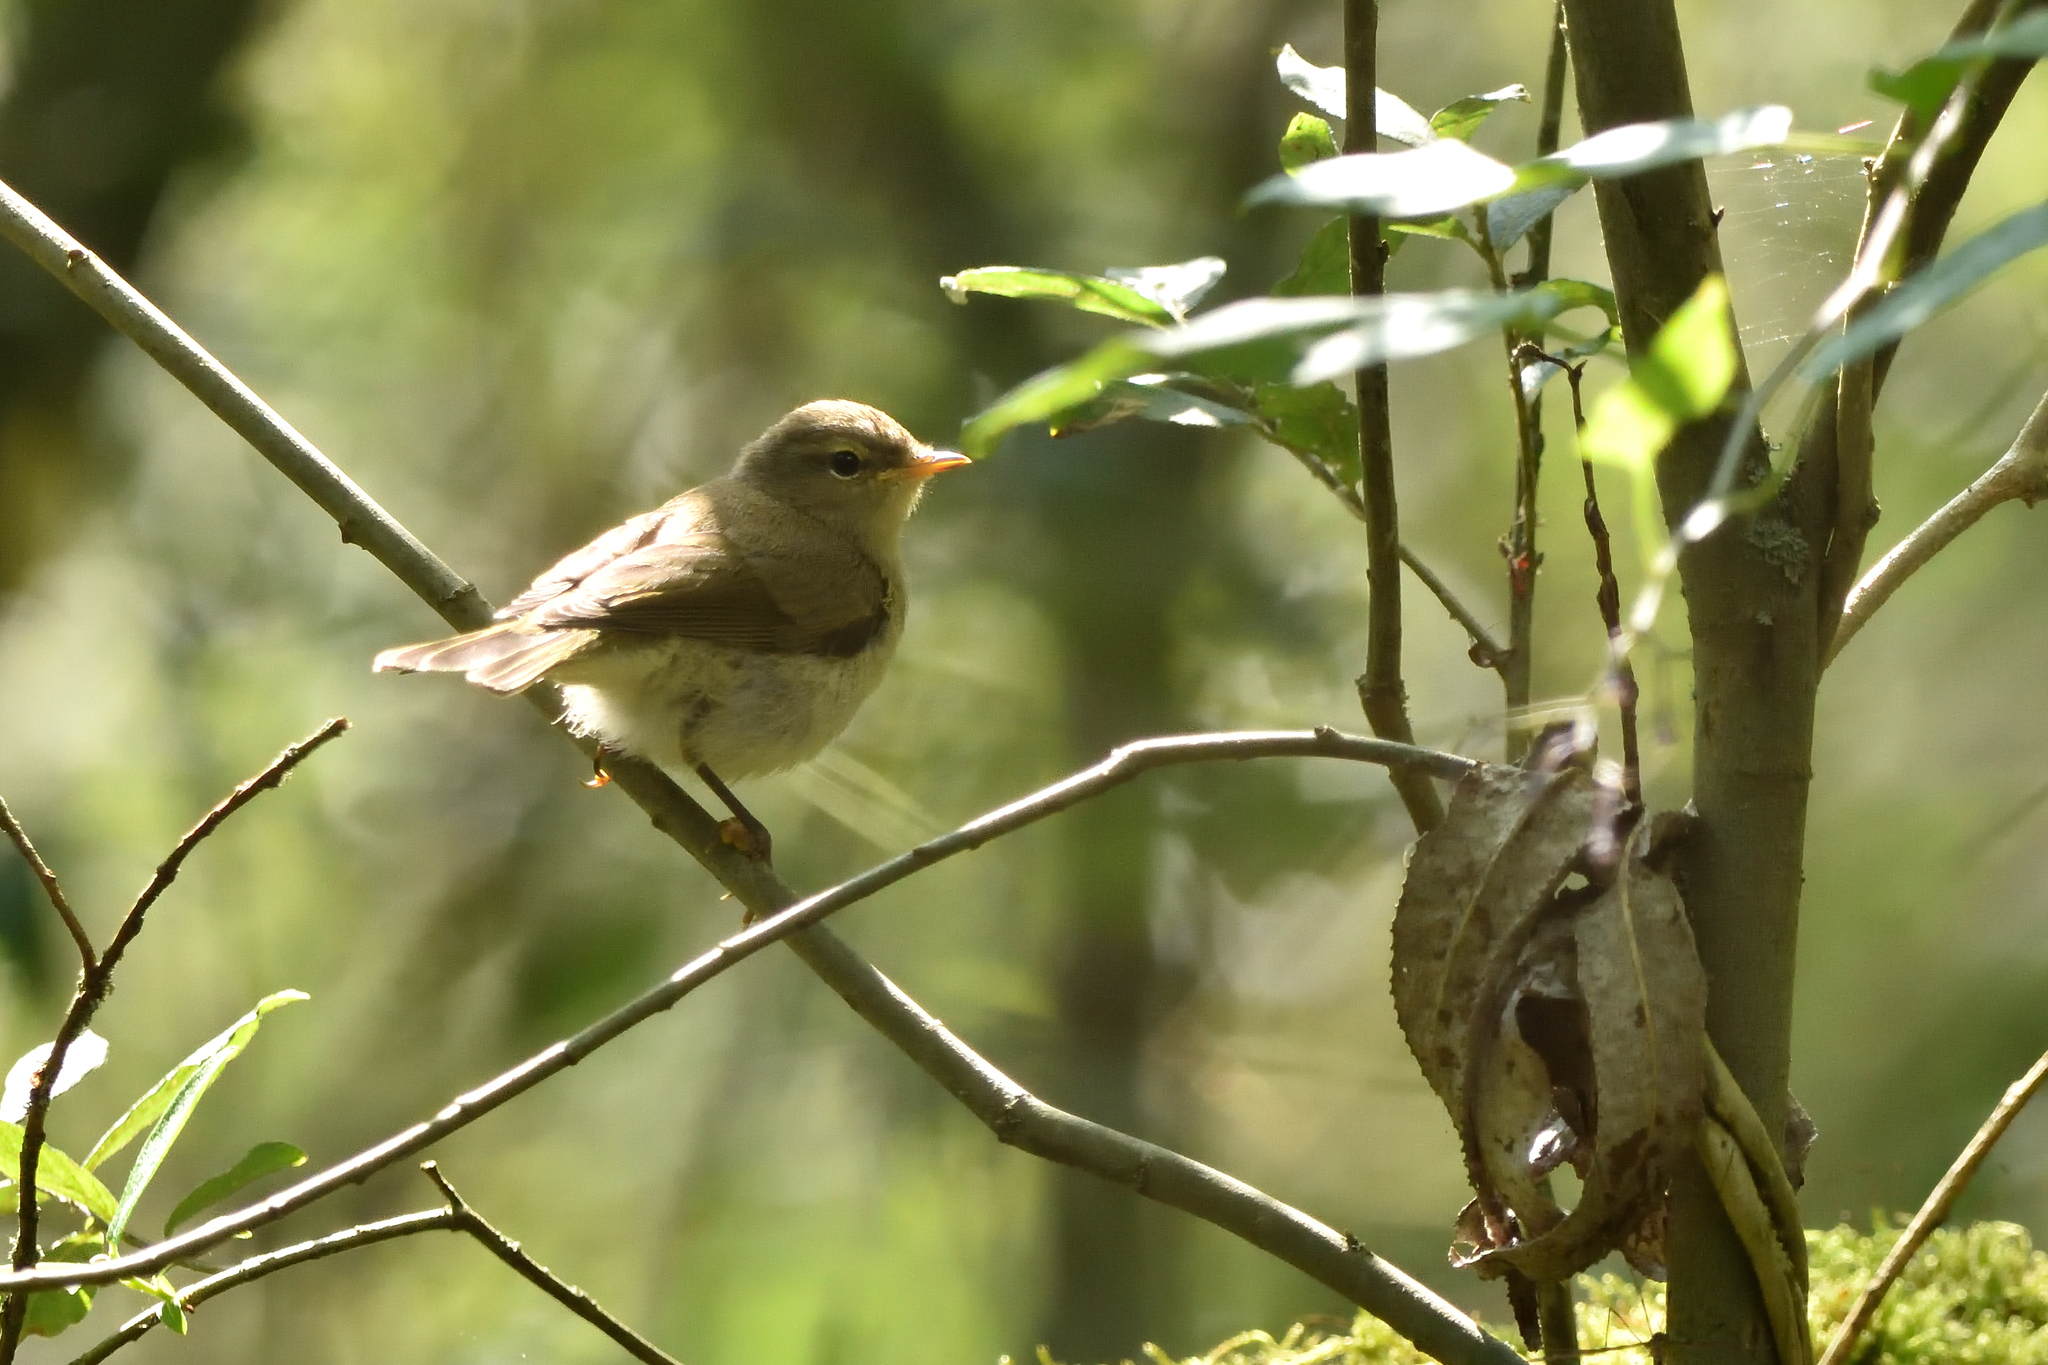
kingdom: Animalia
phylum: Chordata
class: Aves
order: Passeriformes
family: Phylloscopidae
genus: Phylloscopus
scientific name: Phylloscopus collybita
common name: Common chiffchaff
